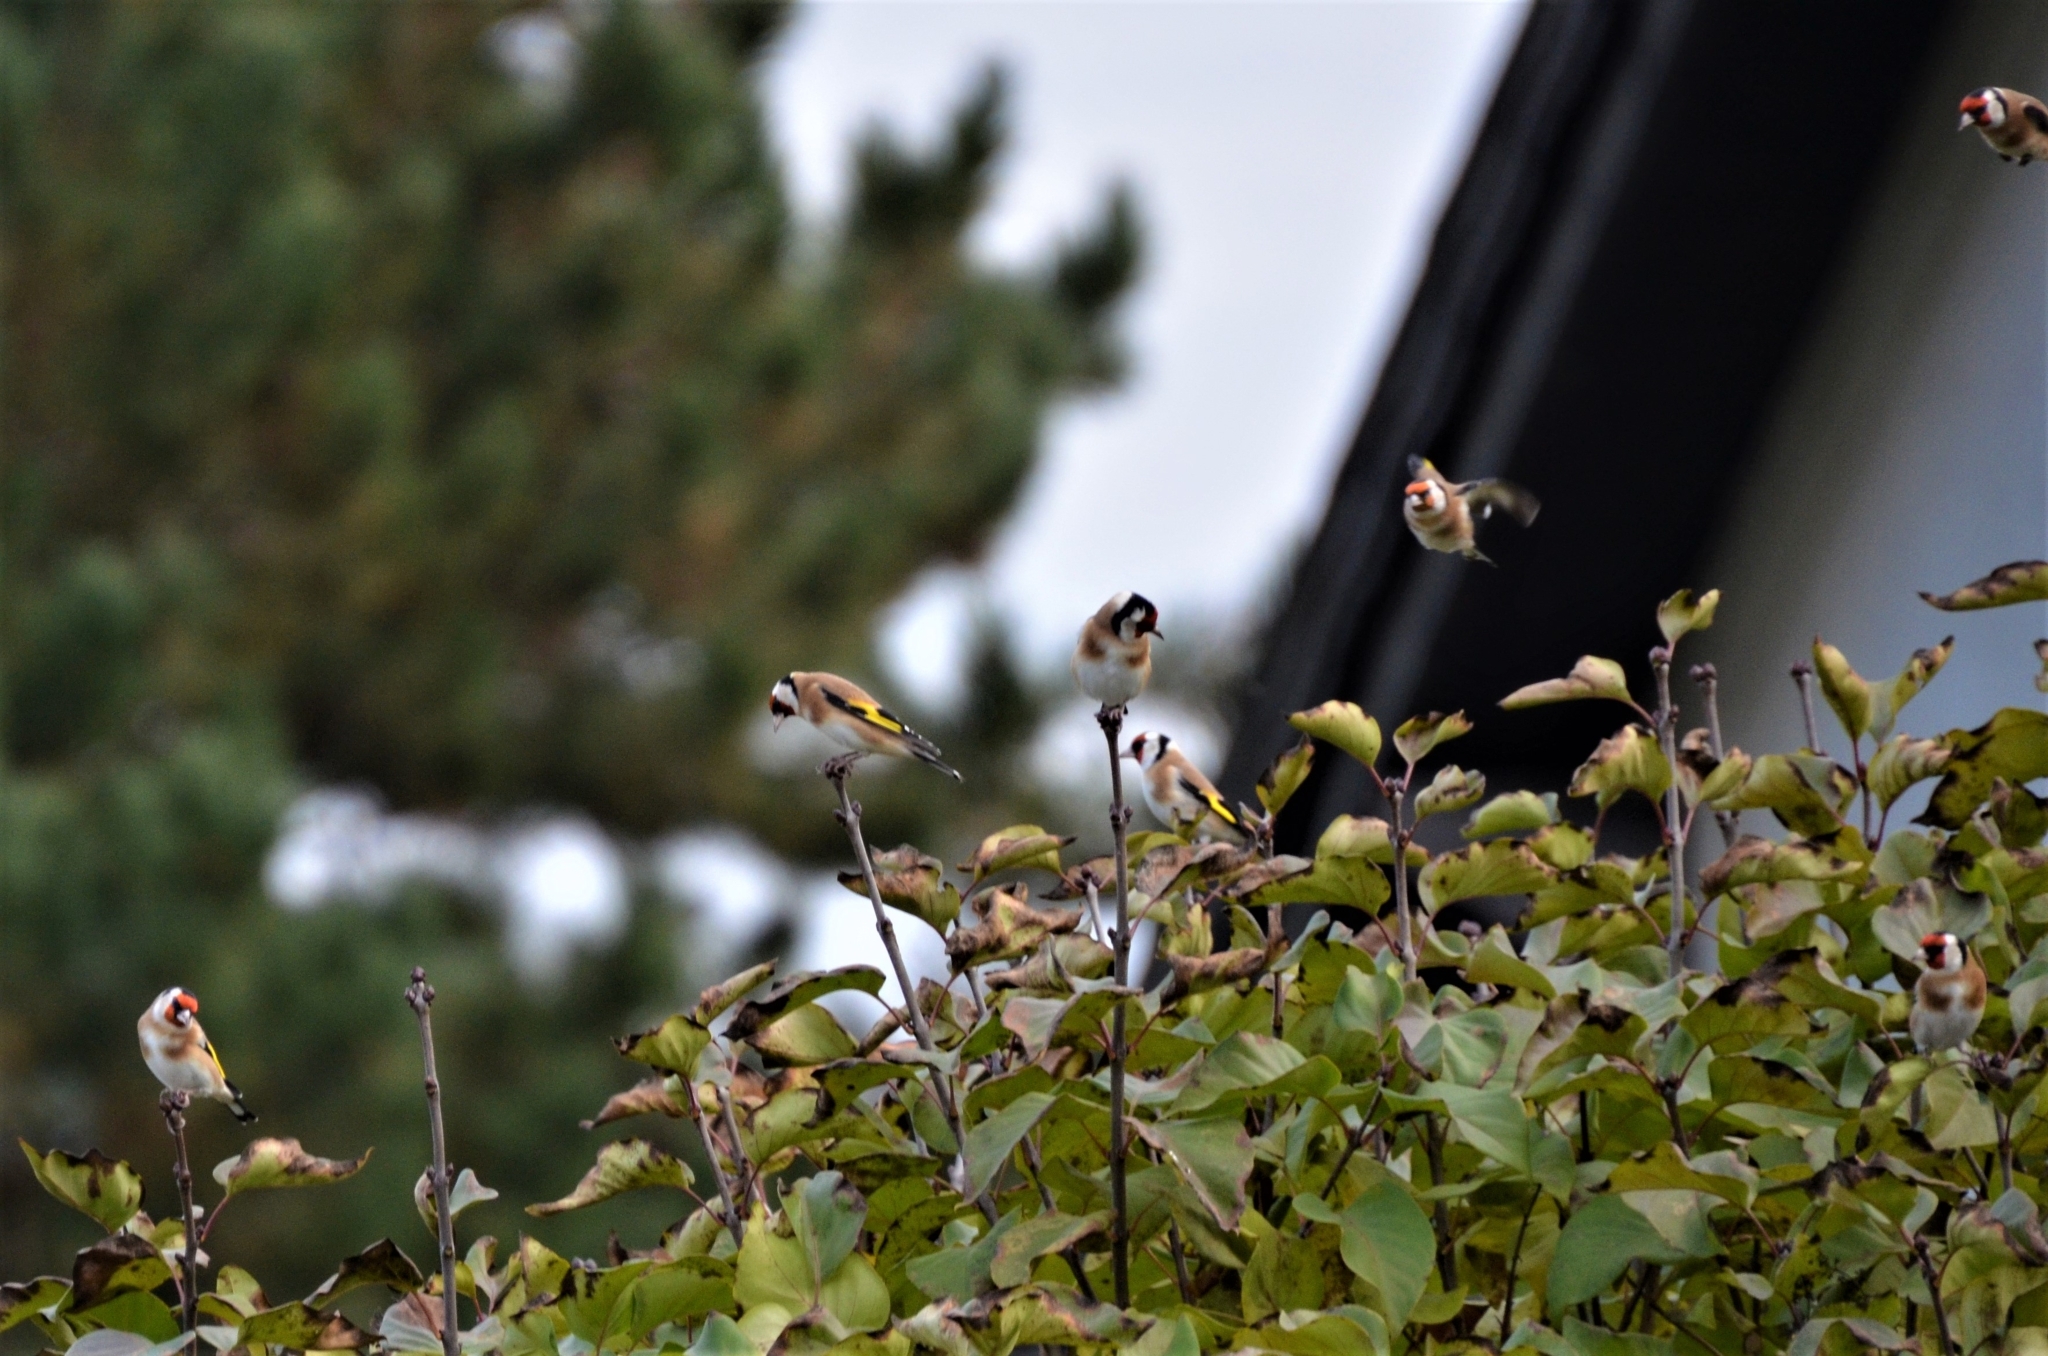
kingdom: Animalia
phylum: Chordata
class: Aves
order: Passeriformes
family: Fringillidae
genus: Carduelis
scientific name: Carduelis carduelis
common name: European goldfinch
